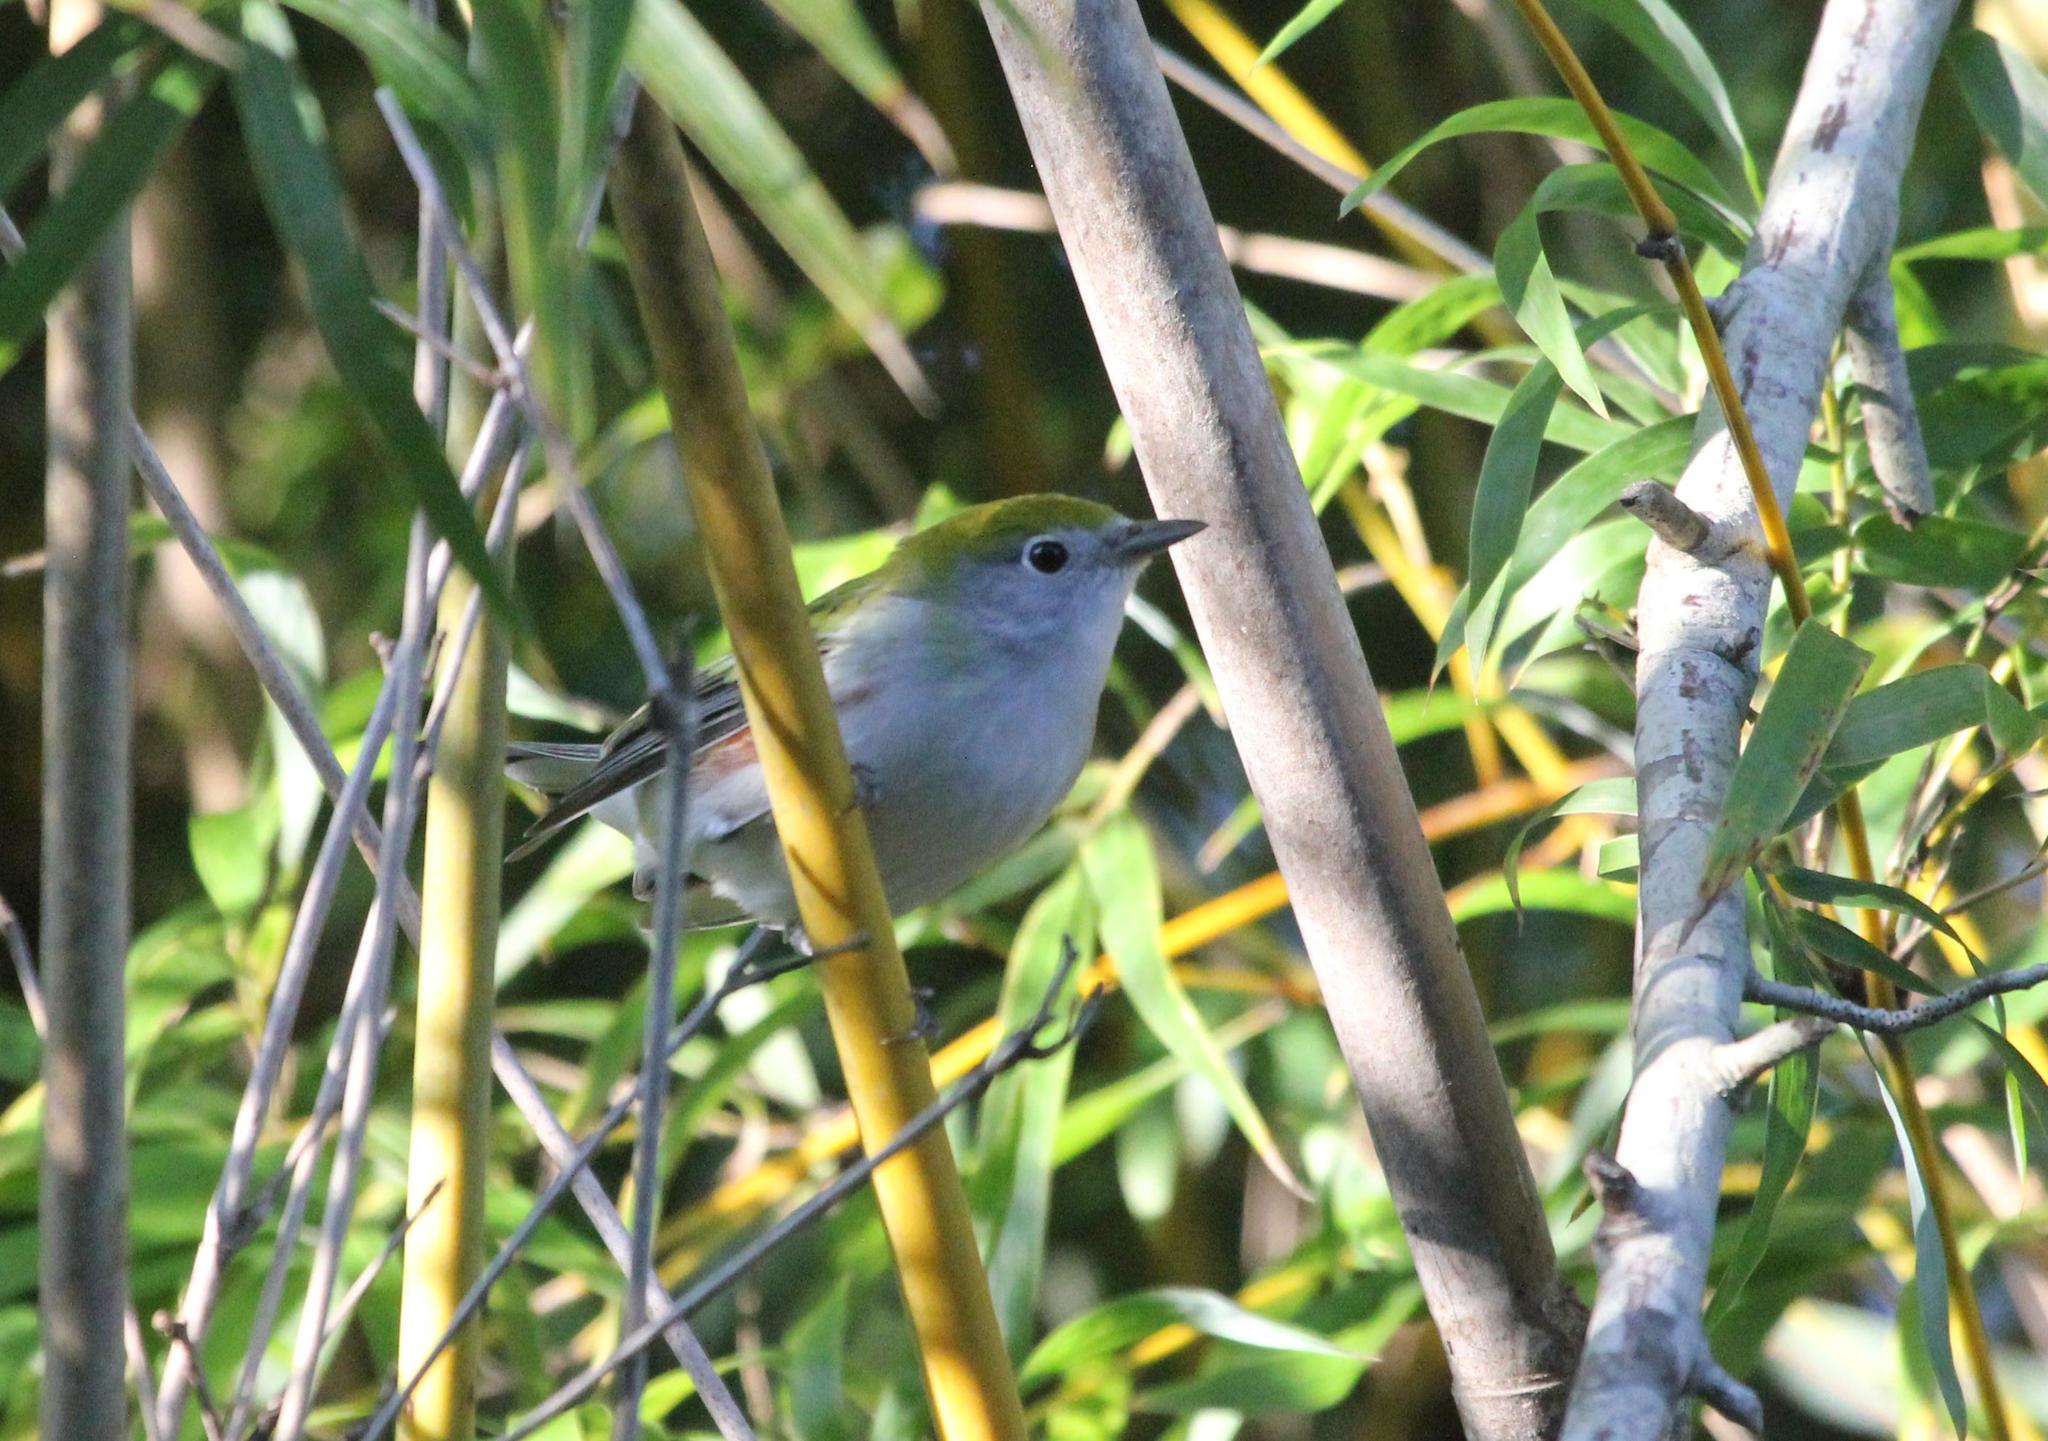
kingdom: Animalia
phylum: Chordata
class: Aves
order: Passeriformes
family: Parulidae
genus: Setophaga
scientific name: Setophaga pensylvanica
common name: Chestnut-sided warbler
